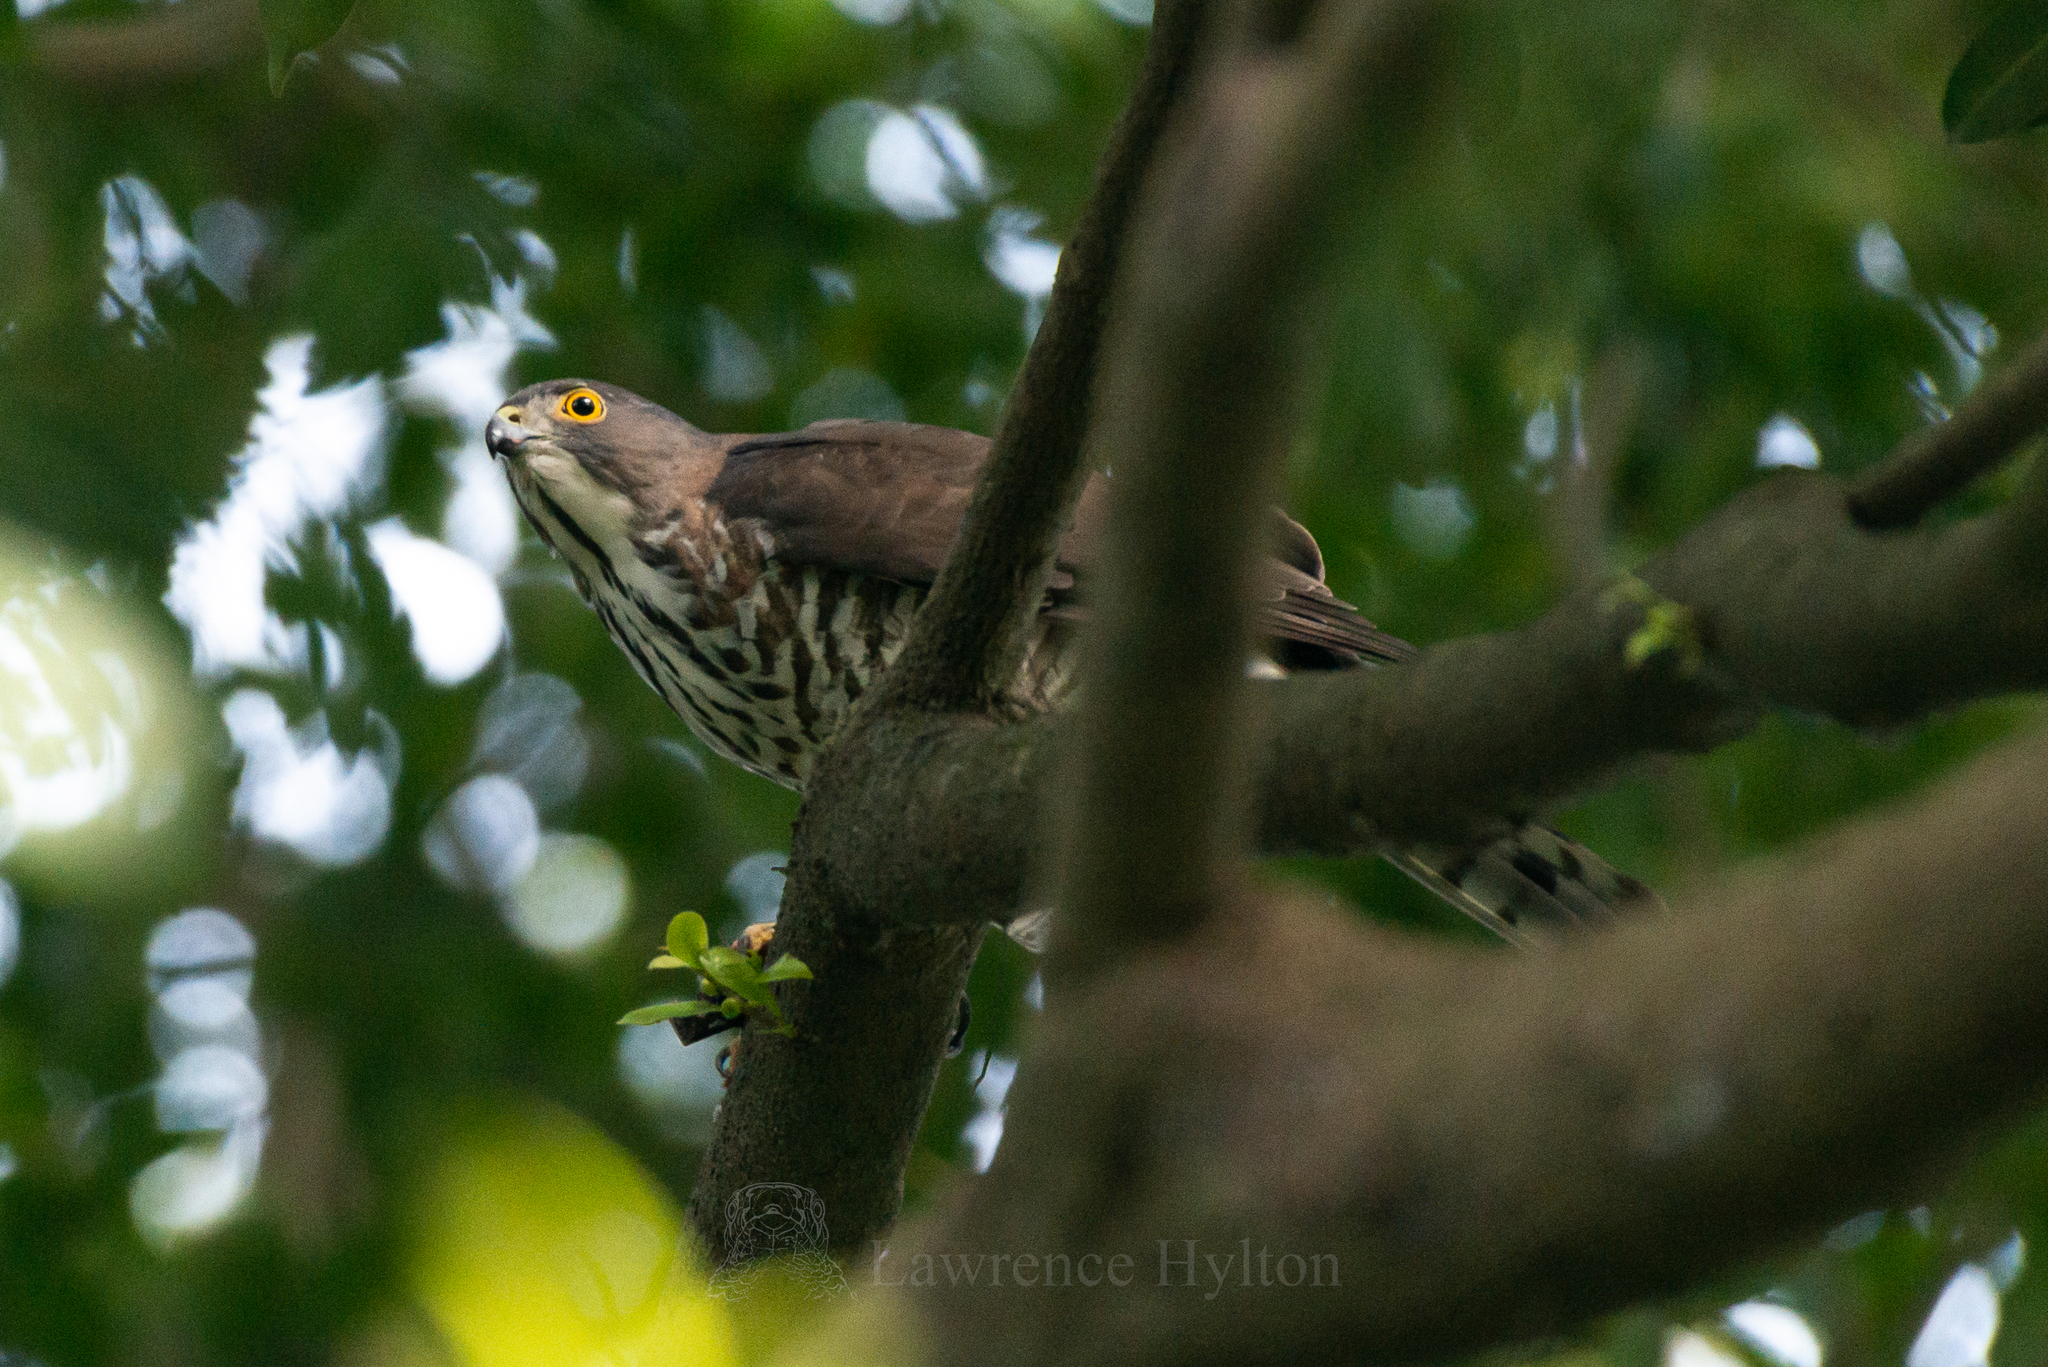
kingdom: Animalia
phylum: Chordata
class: Aves
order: Accipitriformes
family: Accipitridae
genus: Accipiter
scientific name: Accipiter virgatus
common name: Besra
